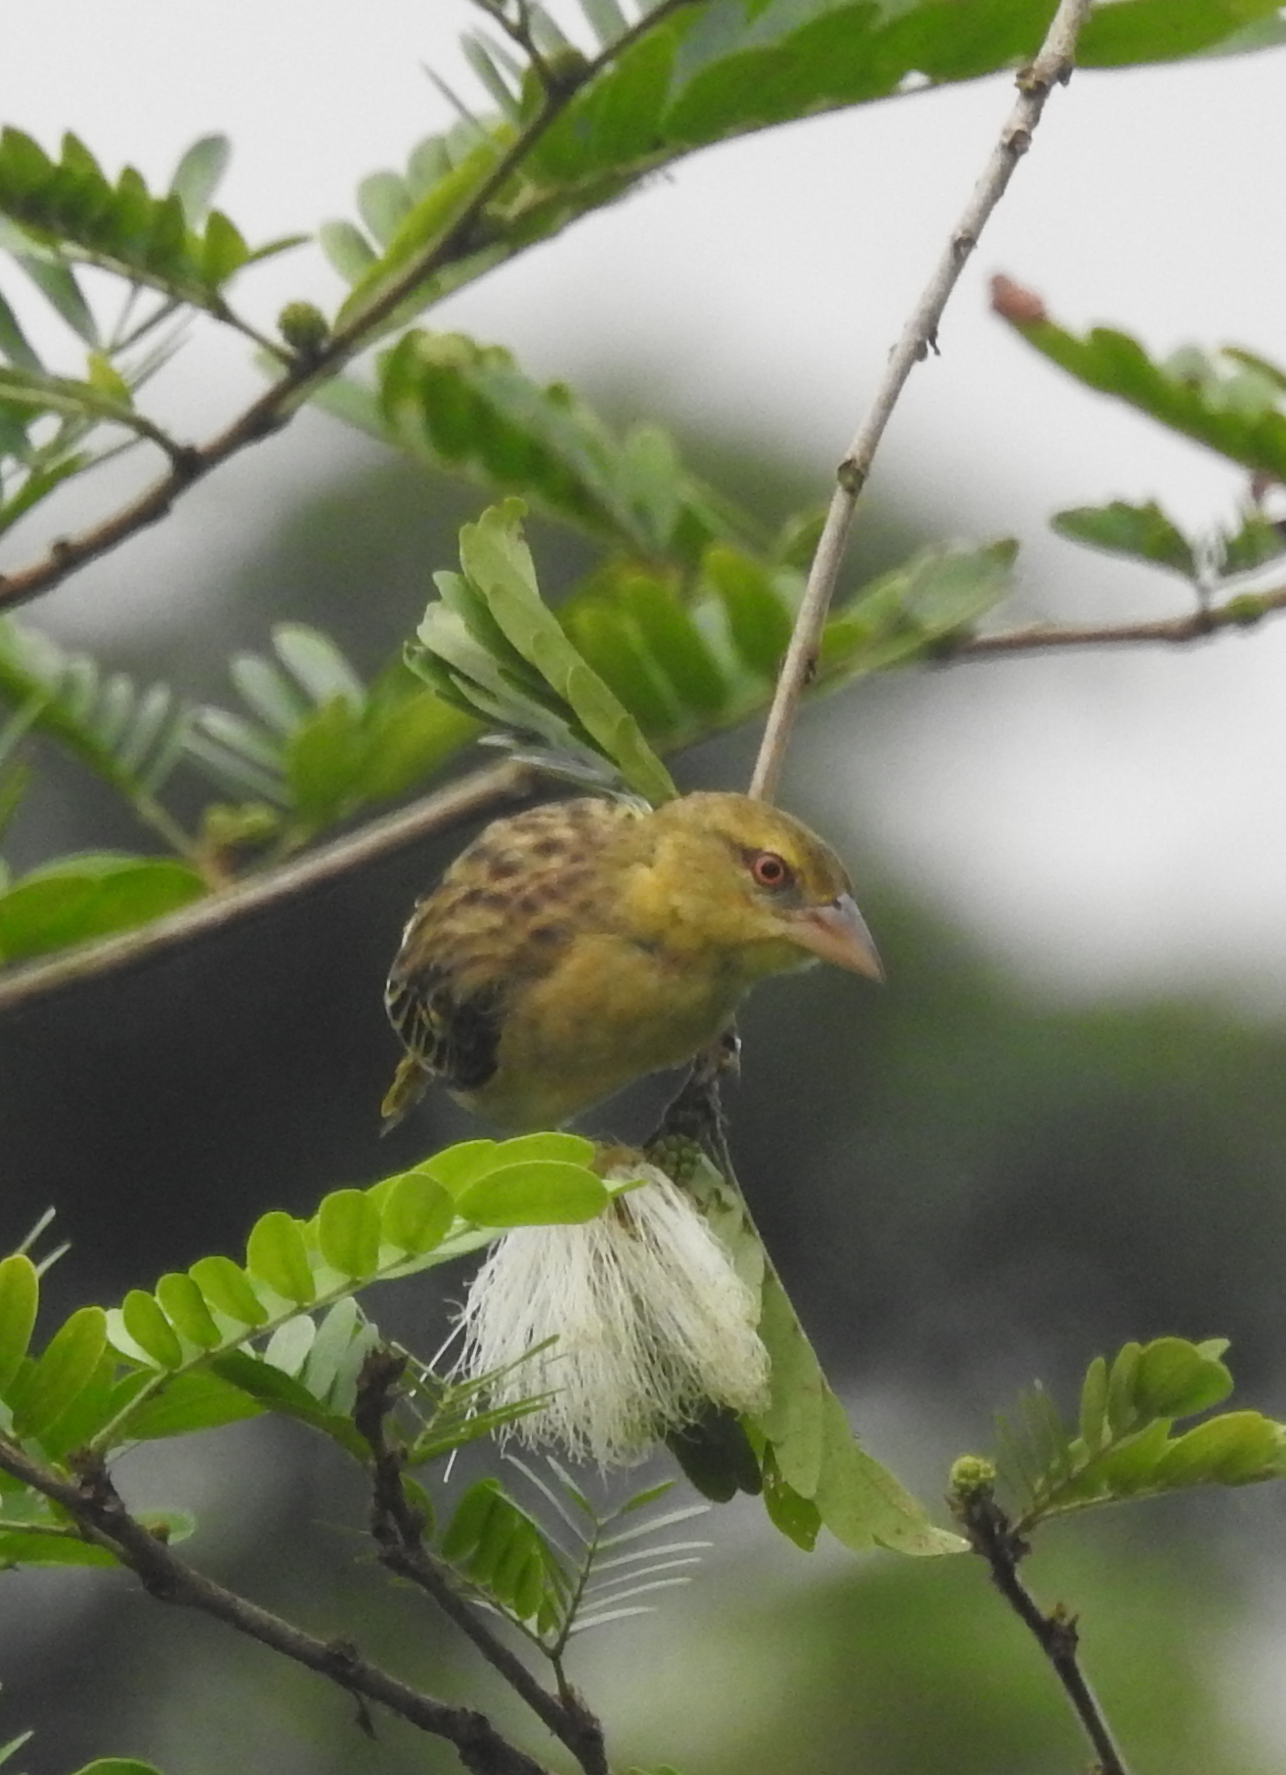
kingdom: Animalia
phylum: Chordata
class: Aves
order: Passeriformes
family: Ploceidae
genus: Ploceus
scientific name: Ploceus jacksoni
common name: Golden-backed weaver
